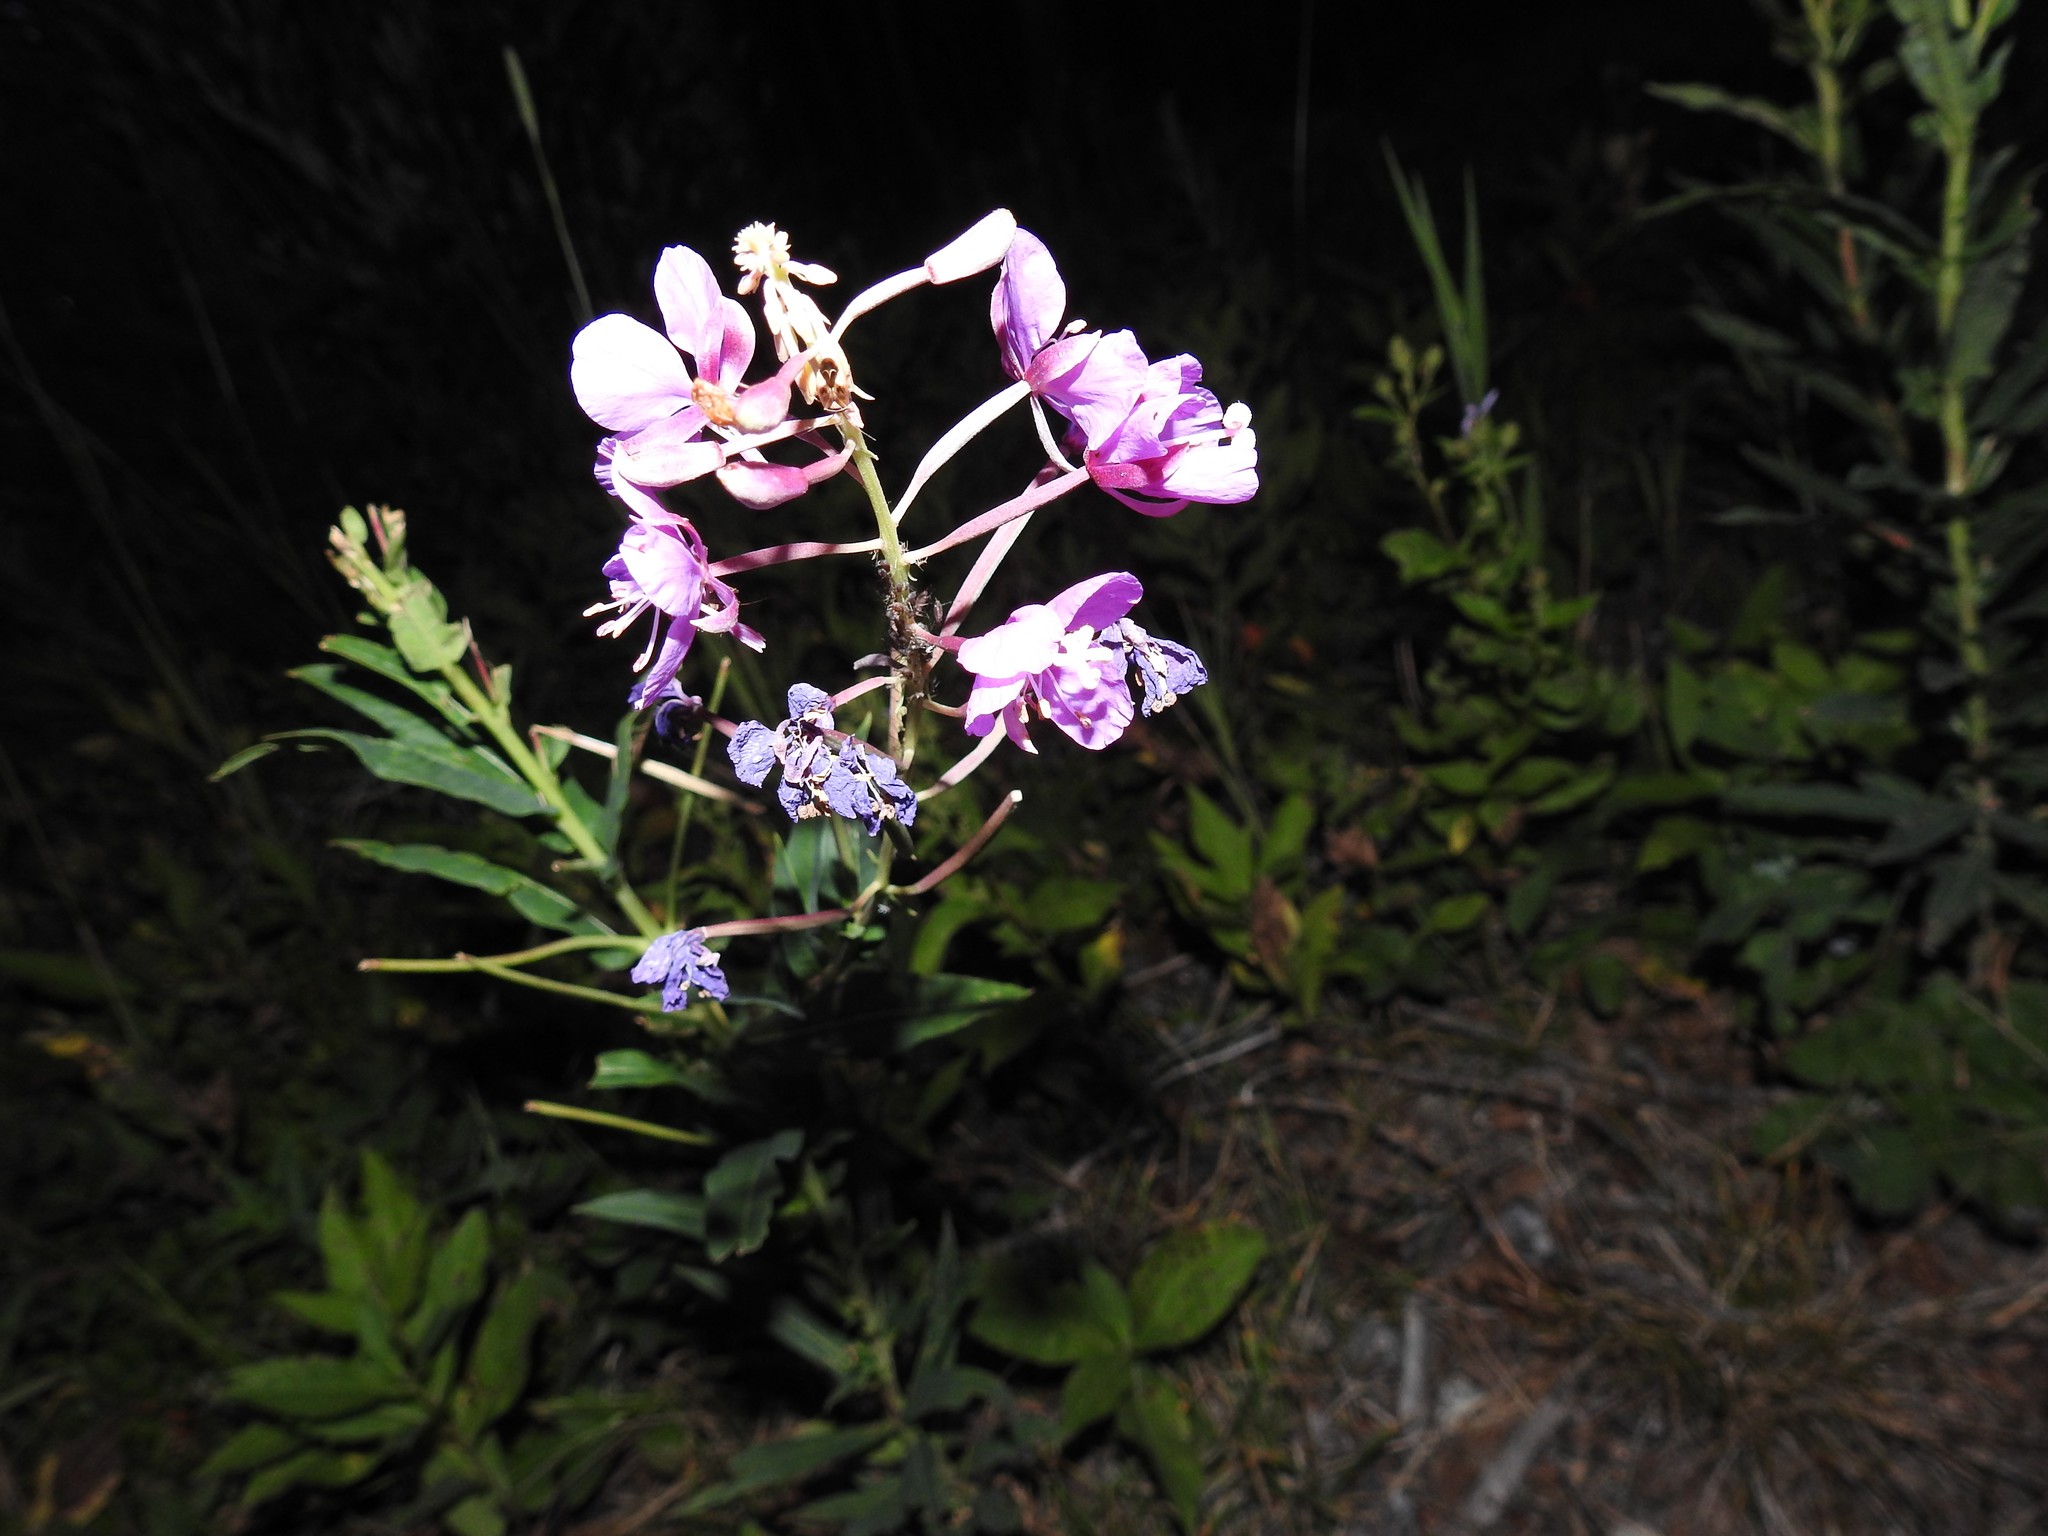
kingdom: Plantae
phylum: Tracheophyta
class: Magnoliopsida
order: Myrtales
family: Onagraceae
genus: Chamaenerion
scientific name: Chamaenerion angustifolium
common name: Fireweed
